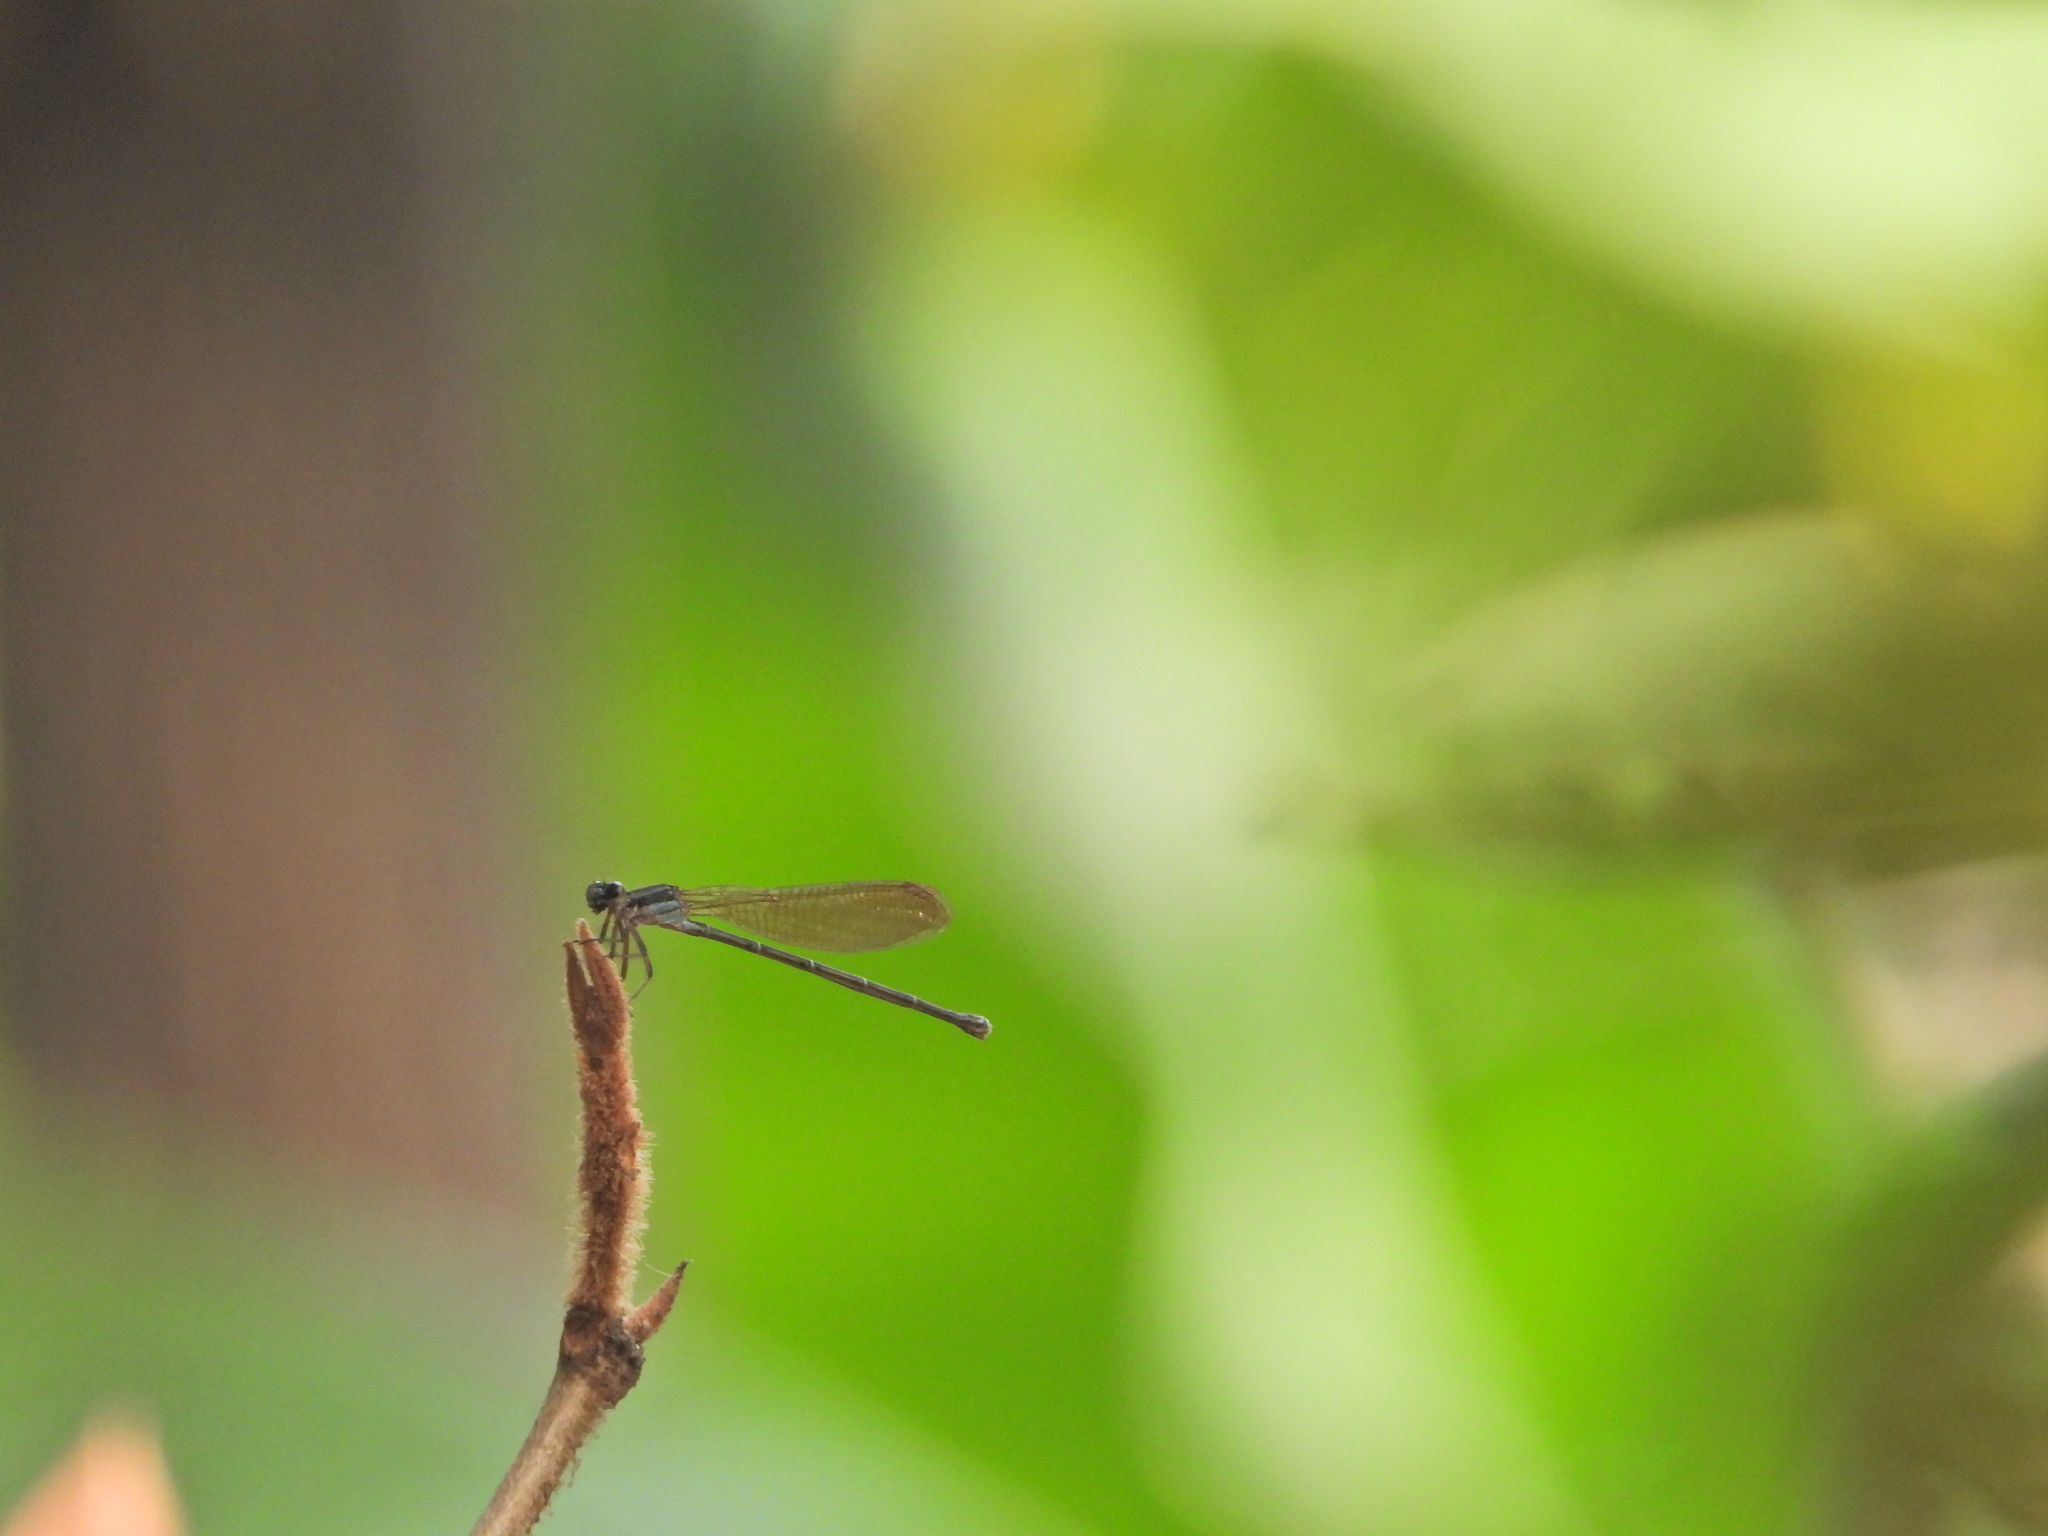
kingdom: Animalia
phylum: Arthropoda
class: Insecta
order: Odonata
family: Coenagrionidae
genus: Argia
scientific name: Argia tezpi
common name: Tezpi dancer
